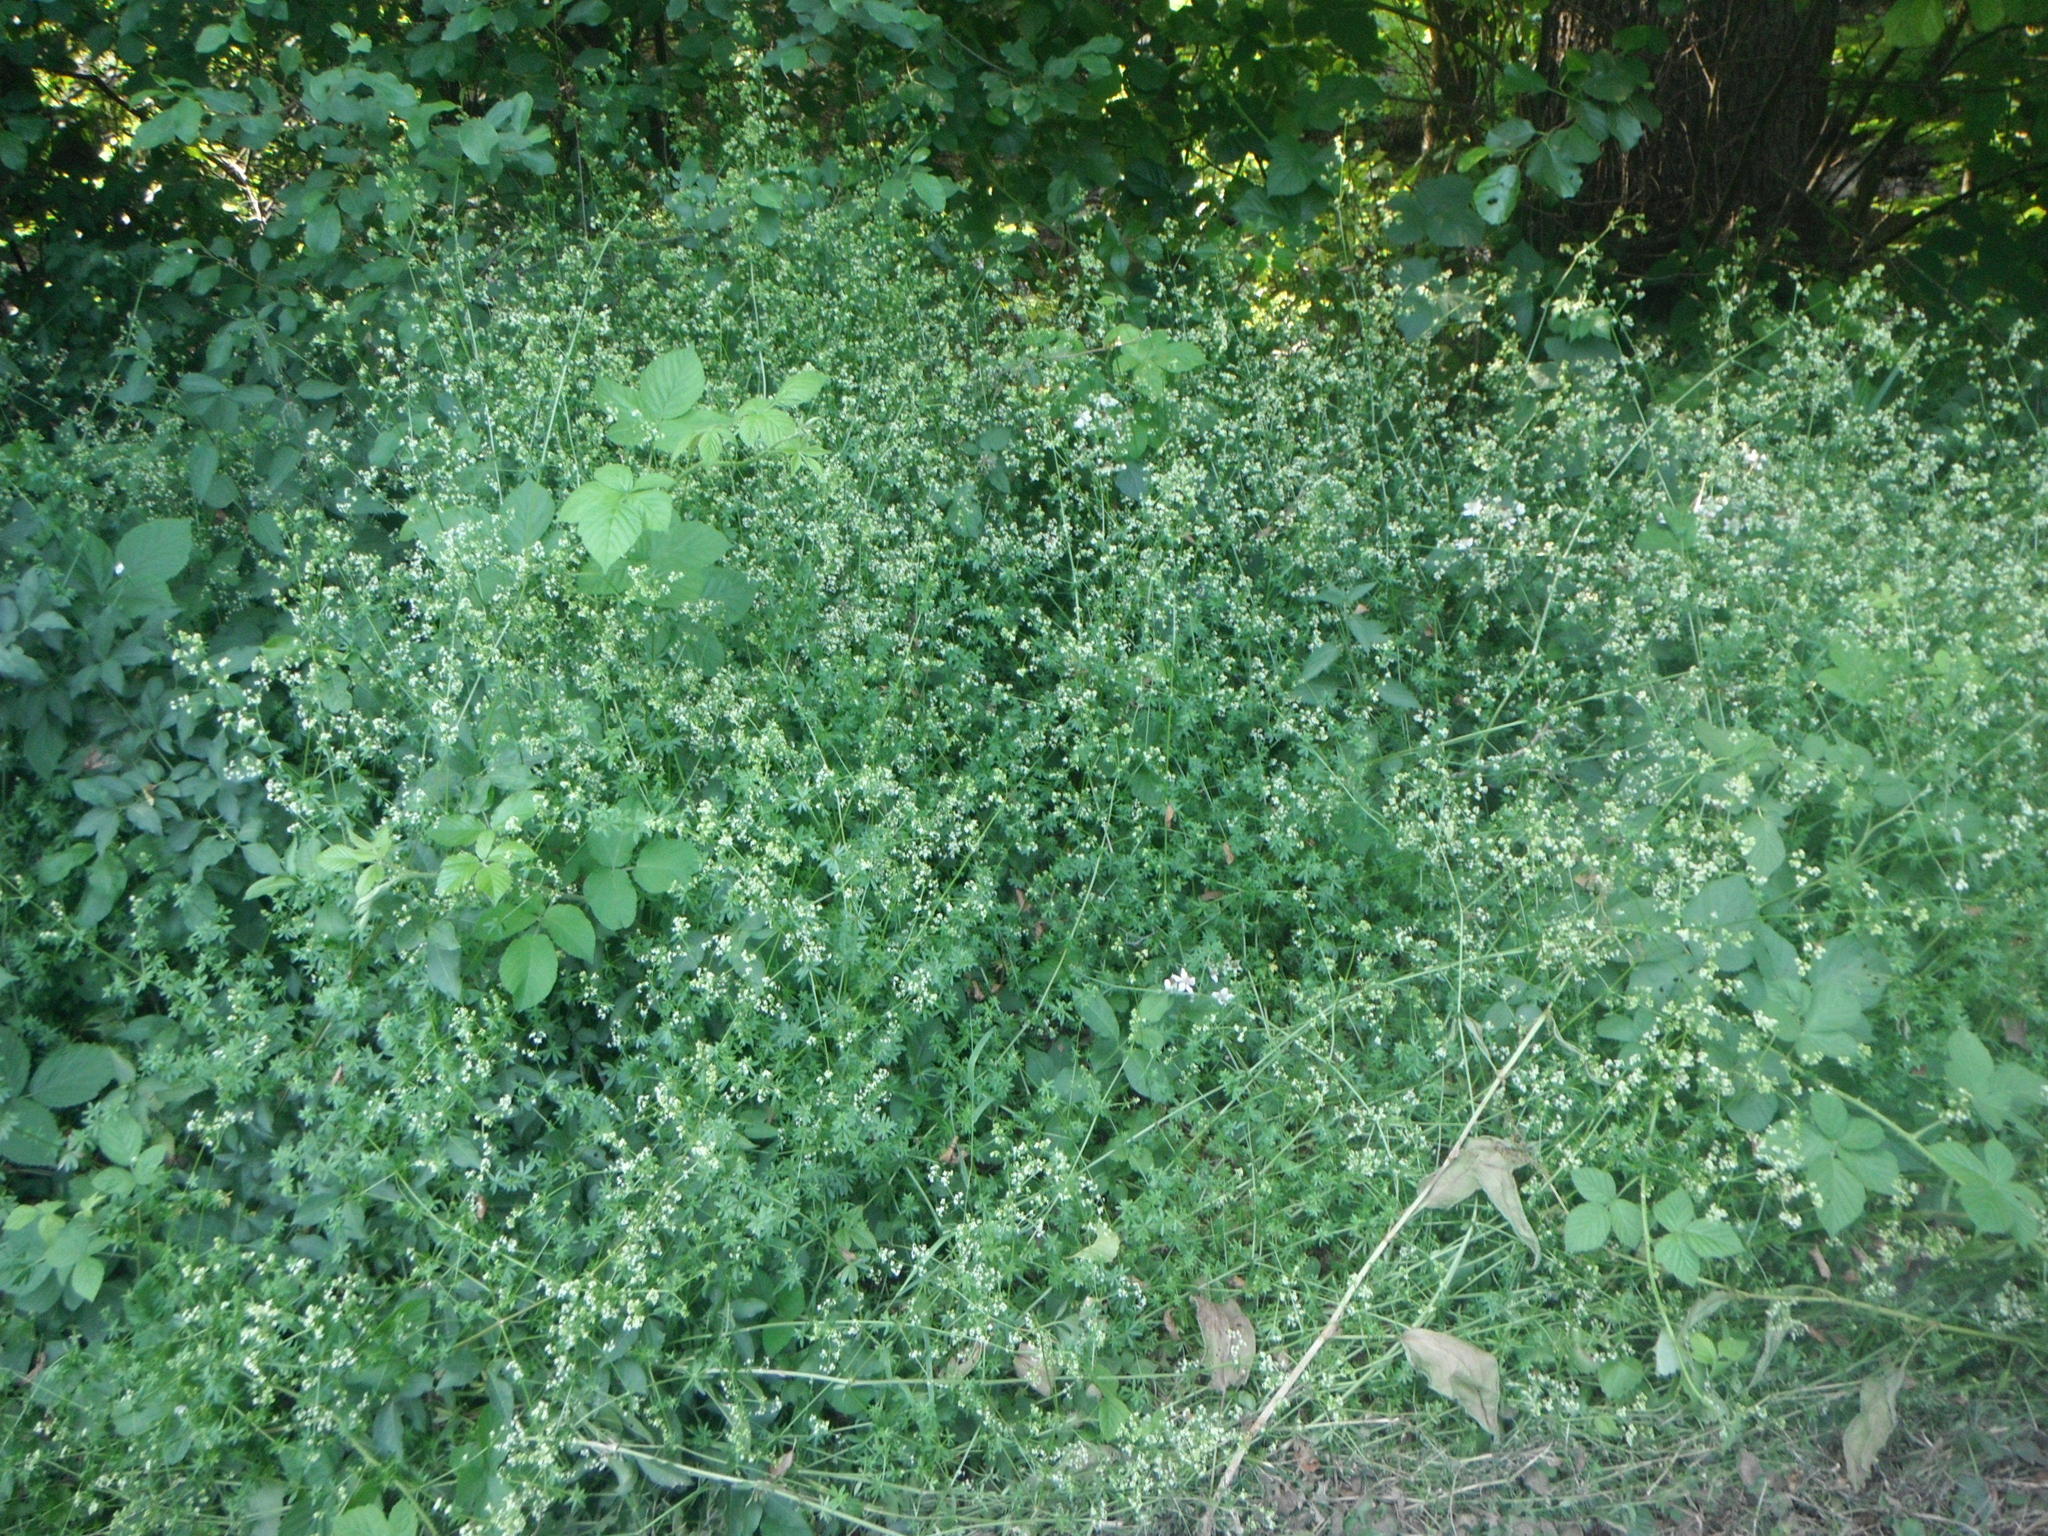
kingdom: Plantae
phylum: Tracheophyta
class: Magnoliopsida
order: Gentianales
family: Rubiaceae
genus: Galium
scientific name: Galium mollugo
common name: Hedge bedstraw
